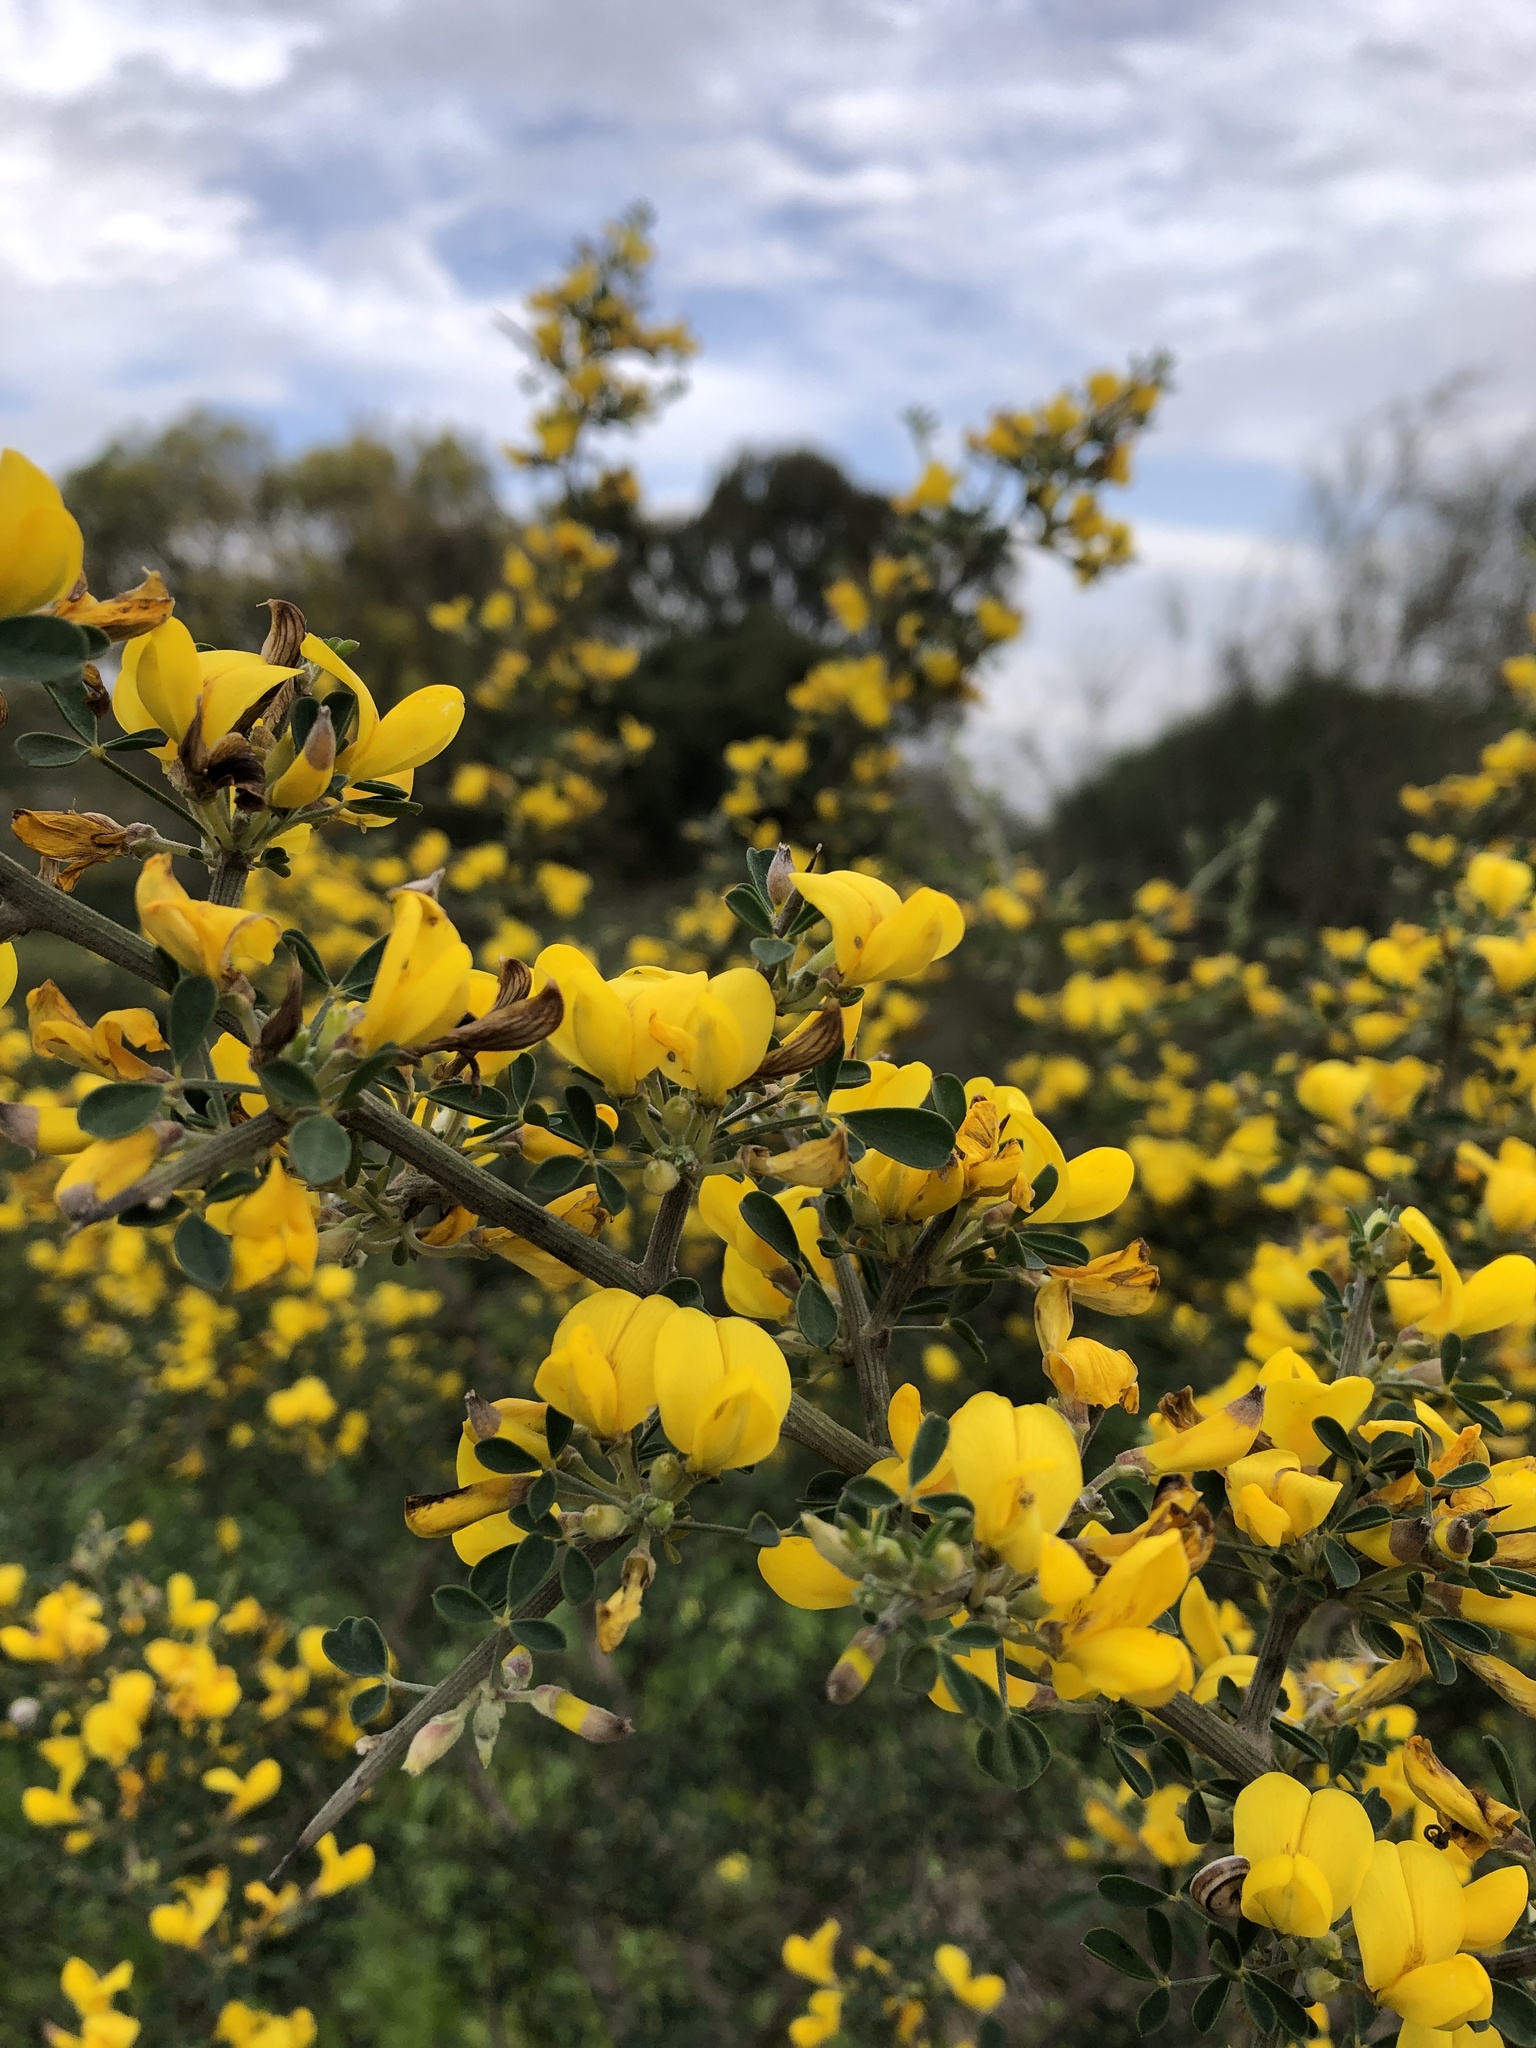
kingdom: Plantae
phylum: Tracheophyta
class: Magnoliopsida
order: Fabales
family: Fabaceae
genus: Calicotome
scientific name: Calicotome villosa
